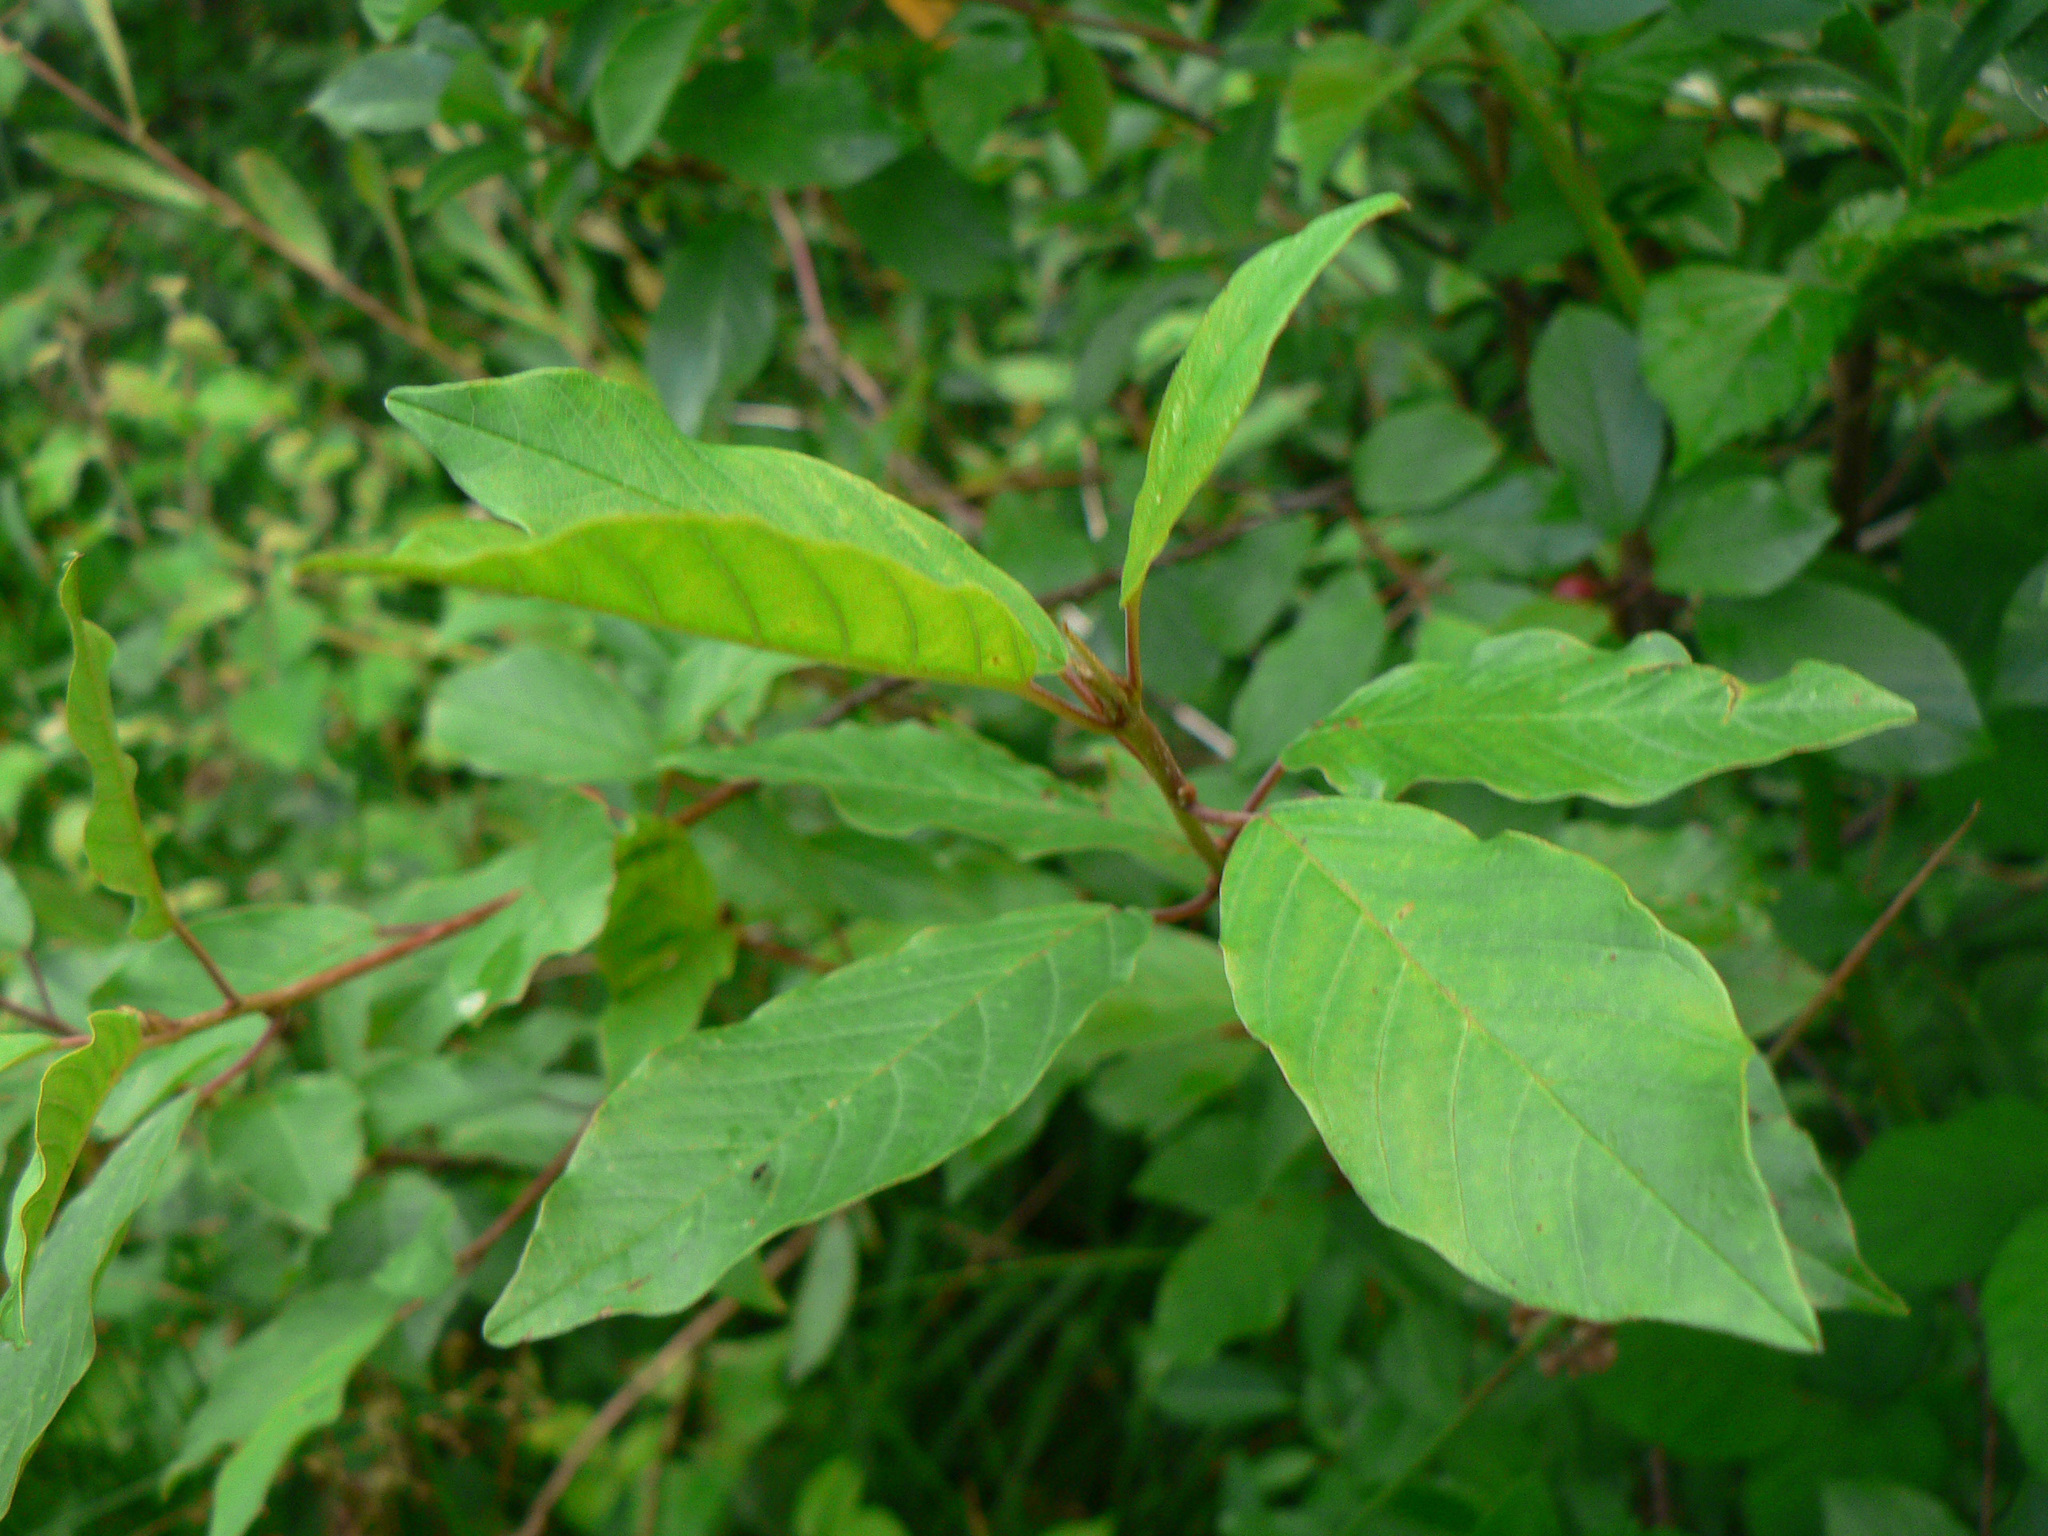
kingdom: Plantae
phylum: Tracheophyta
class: Magnoliopsida
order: Rosales
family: Rhamnaceae
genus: Frangula
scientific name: Frangula alnus
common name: Alder buckthorn
